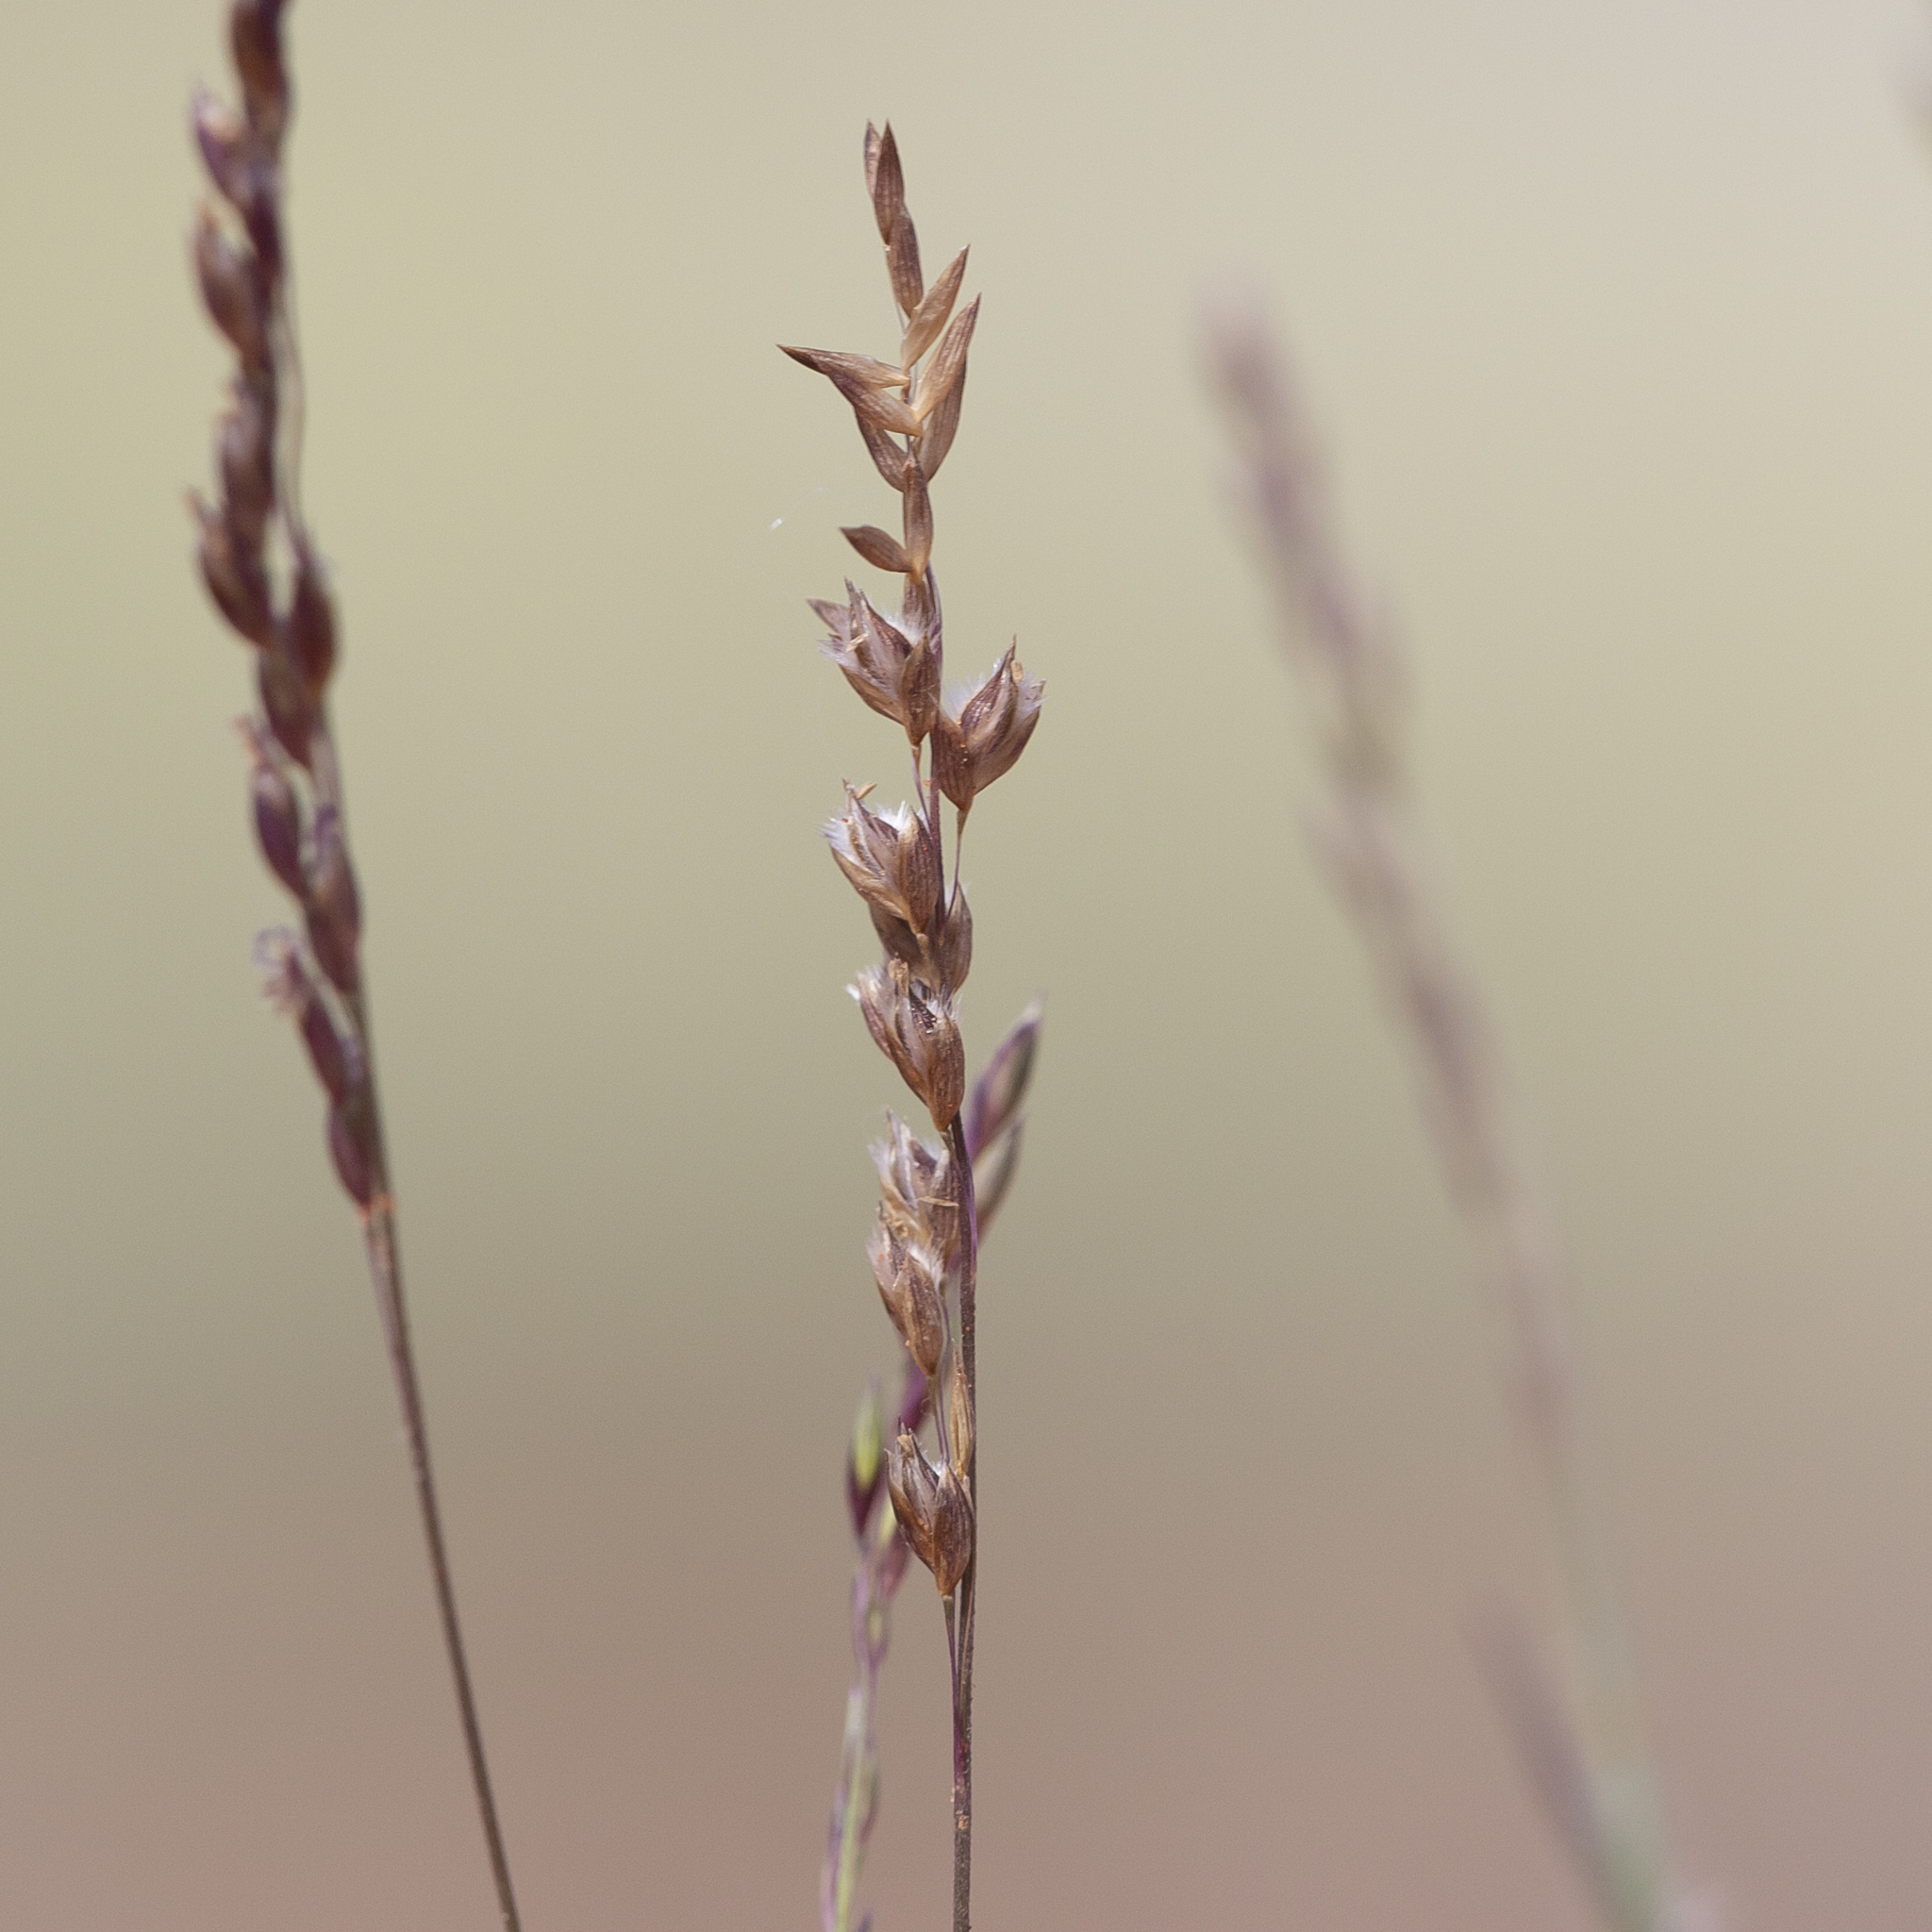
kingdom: Plantae
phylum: Tracheophyta
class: Liliopsida
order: Poales
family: Poaceae
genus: Eriachne
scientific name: Eriachne pulchella
